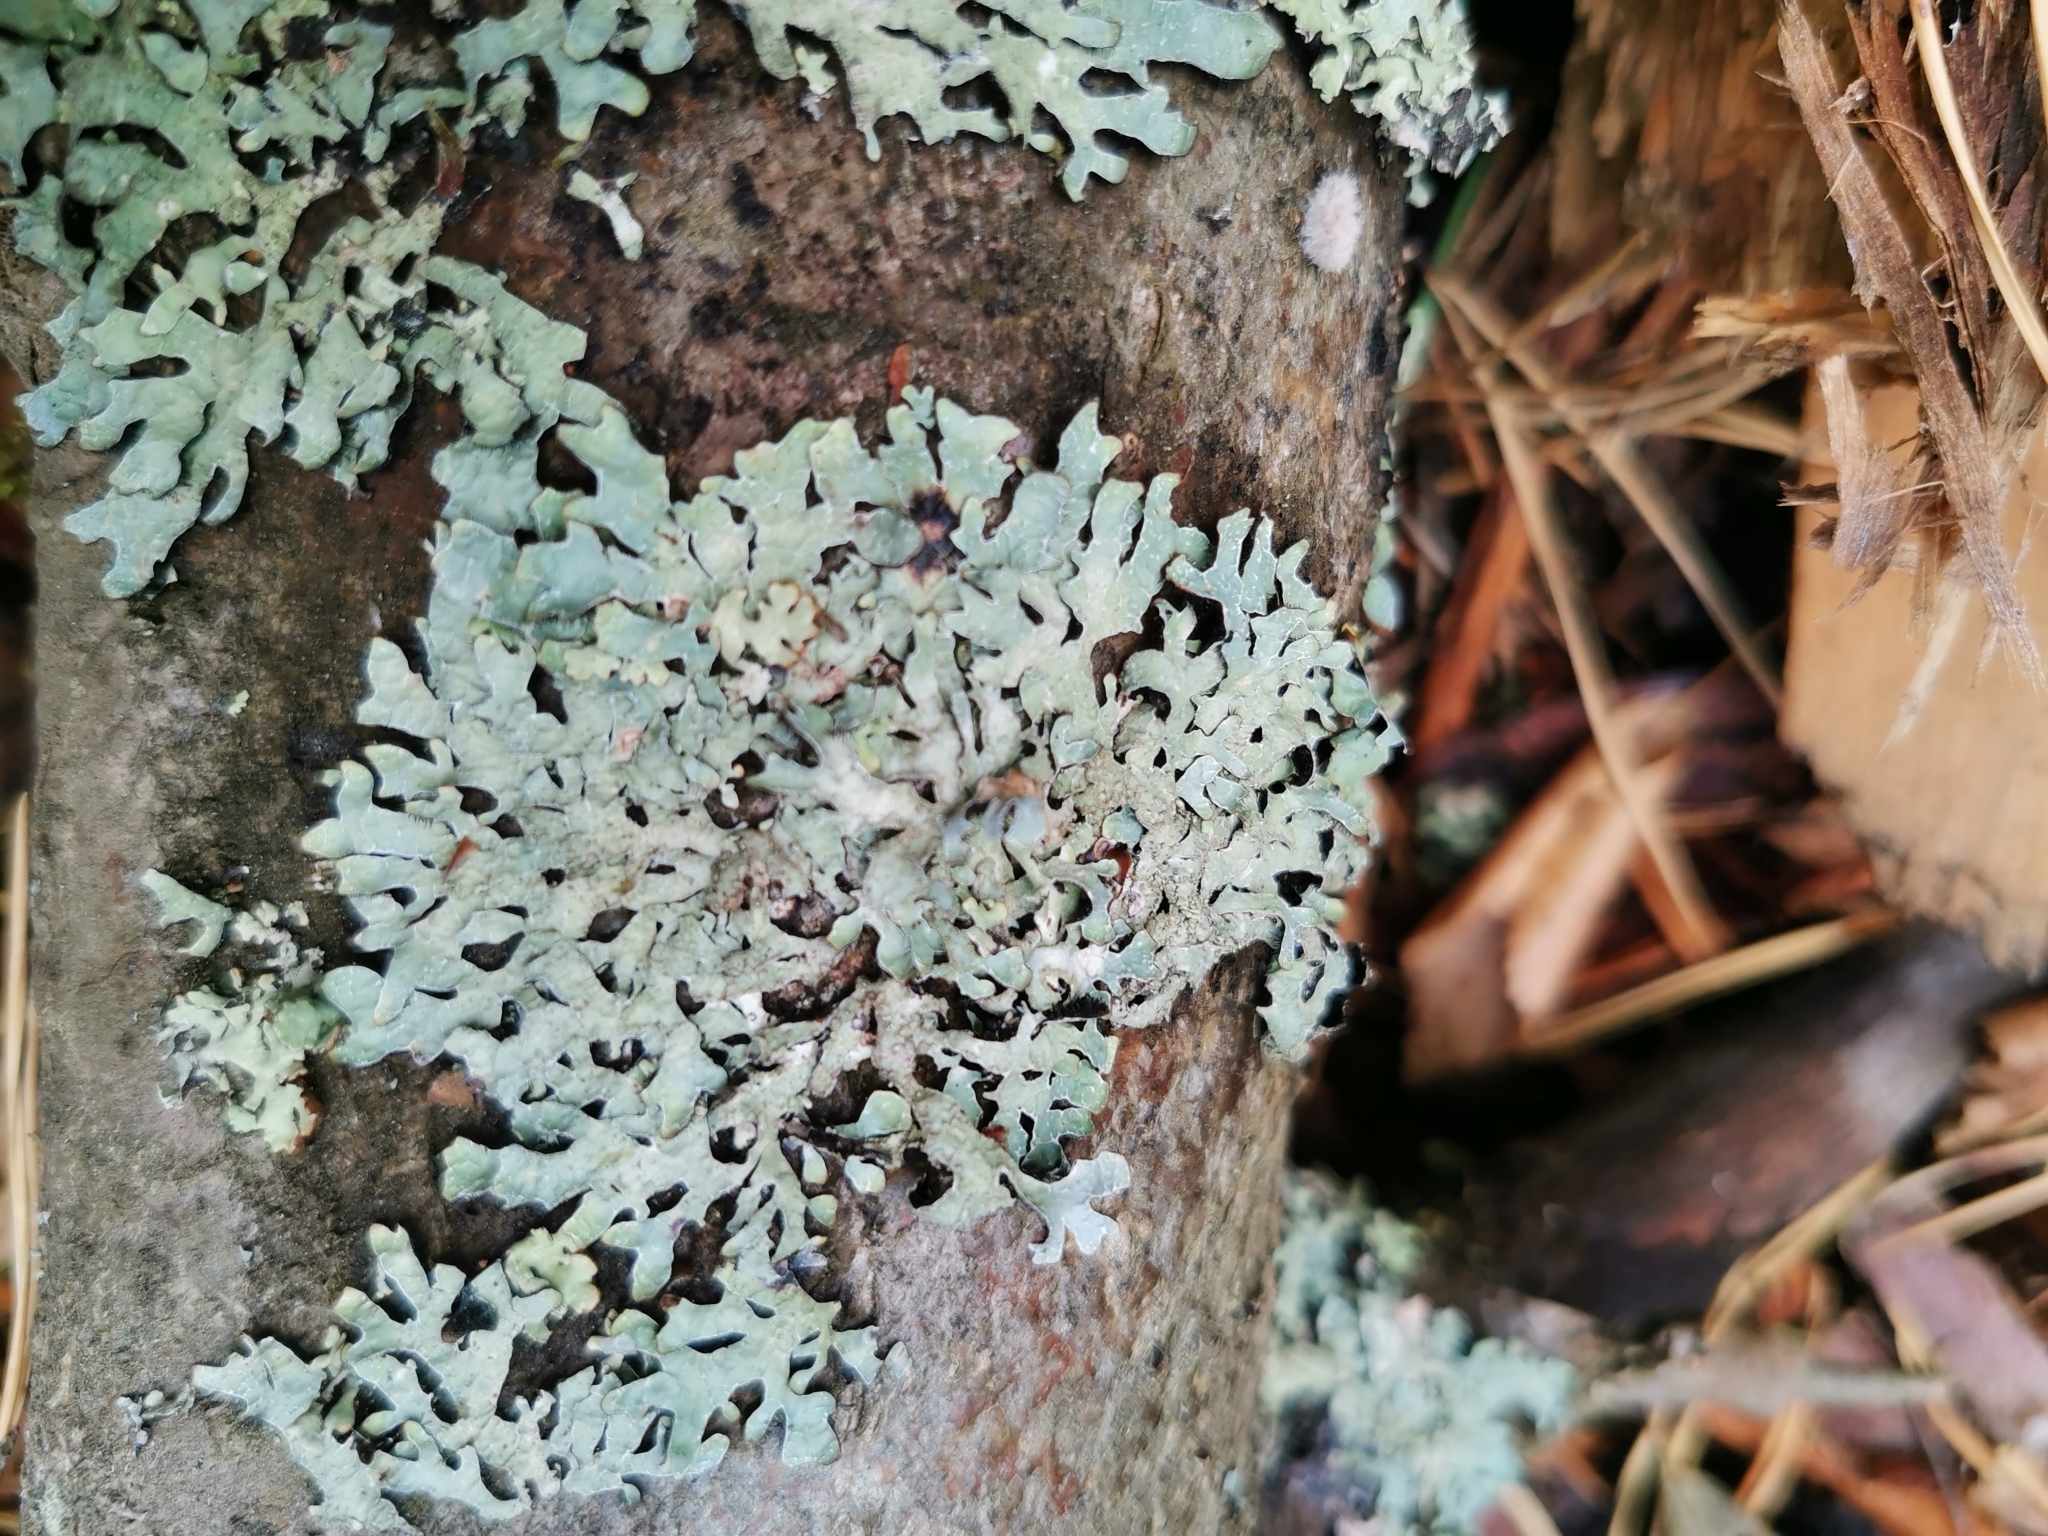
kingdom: Fungi
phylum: Ascomycota
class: Lecanoromycetes
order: Lecanorales
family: Parmeliaceae
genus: Parmelia
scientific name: Parmelia sulcata
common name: Netted shield lichen
